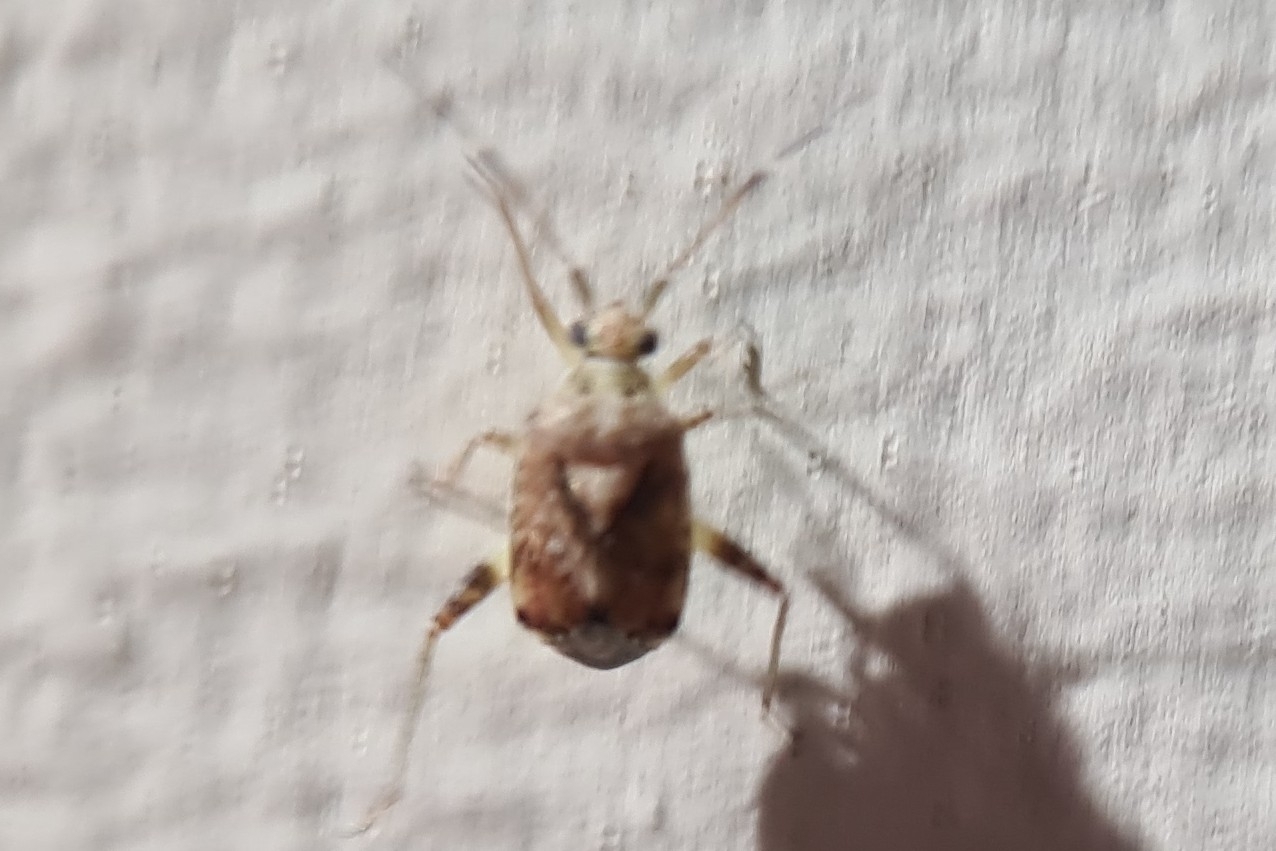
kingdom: Animalia
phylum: Arthropoda
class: Insecta
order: Hemiptera
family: Miridae
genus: Sidnia
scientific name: Sidnia kinbergi
